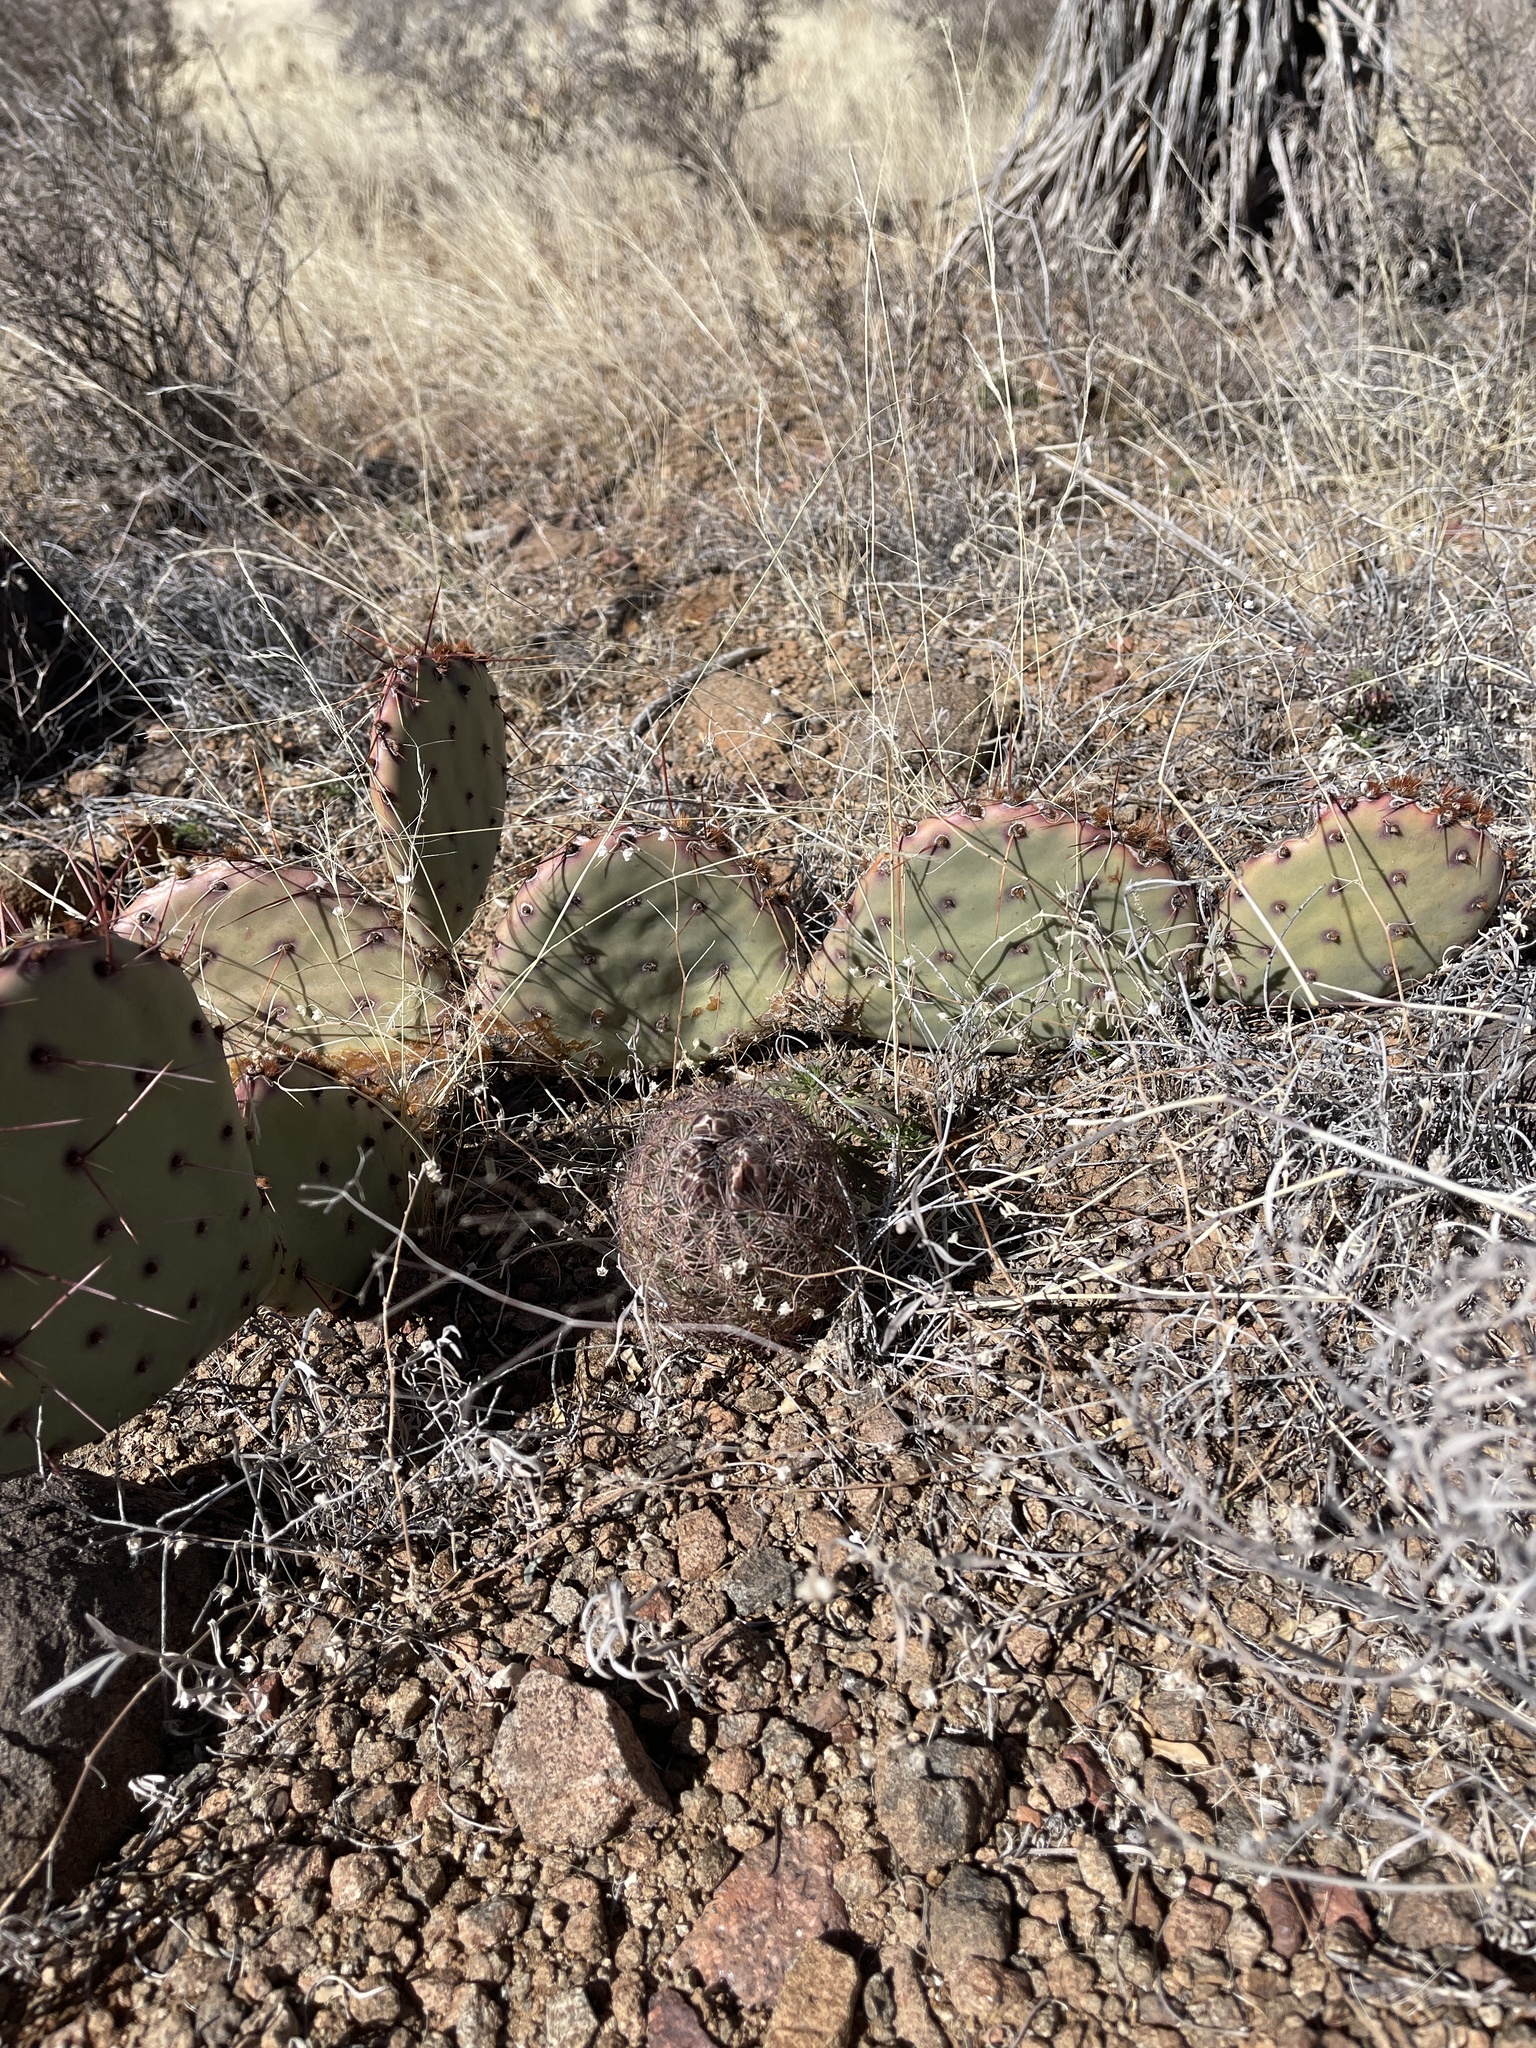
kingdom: Plantae
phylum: Tracheophyta
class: Magnoliopsida
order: Caryophyllales
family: Cactaceae
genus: Sclerocactus
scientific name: Sclerocactus intertextus
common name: White fish-hook cactus
